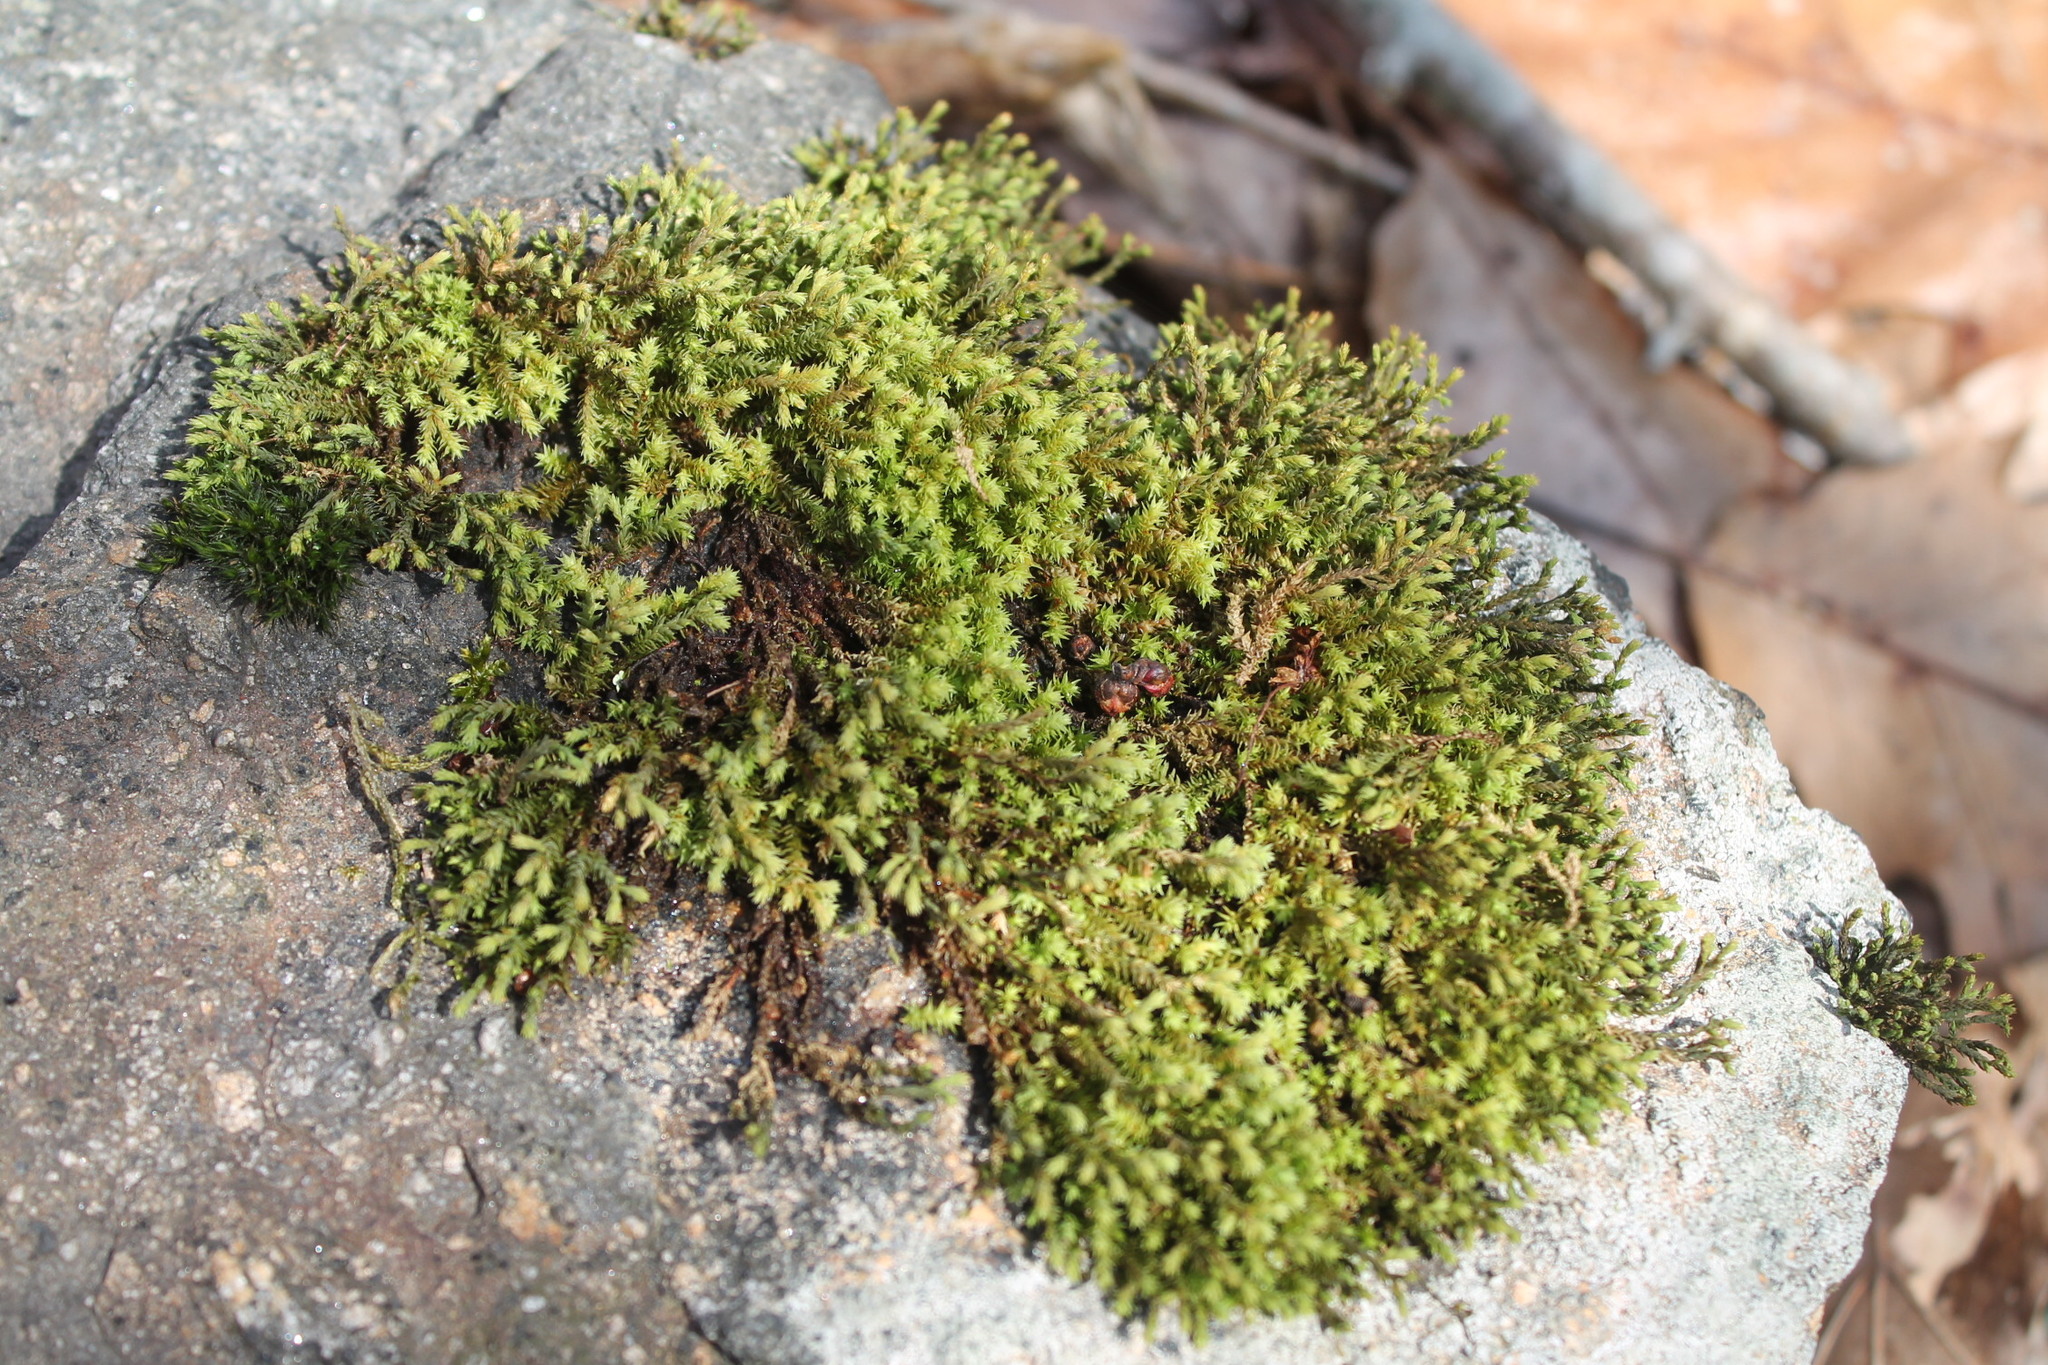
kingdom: Plantae
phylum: Bryophyta
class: Bryopsida
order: Hedwigiales
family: Hedwigiaceae
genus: Hedwigia
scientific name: Hedwigia ciliata
